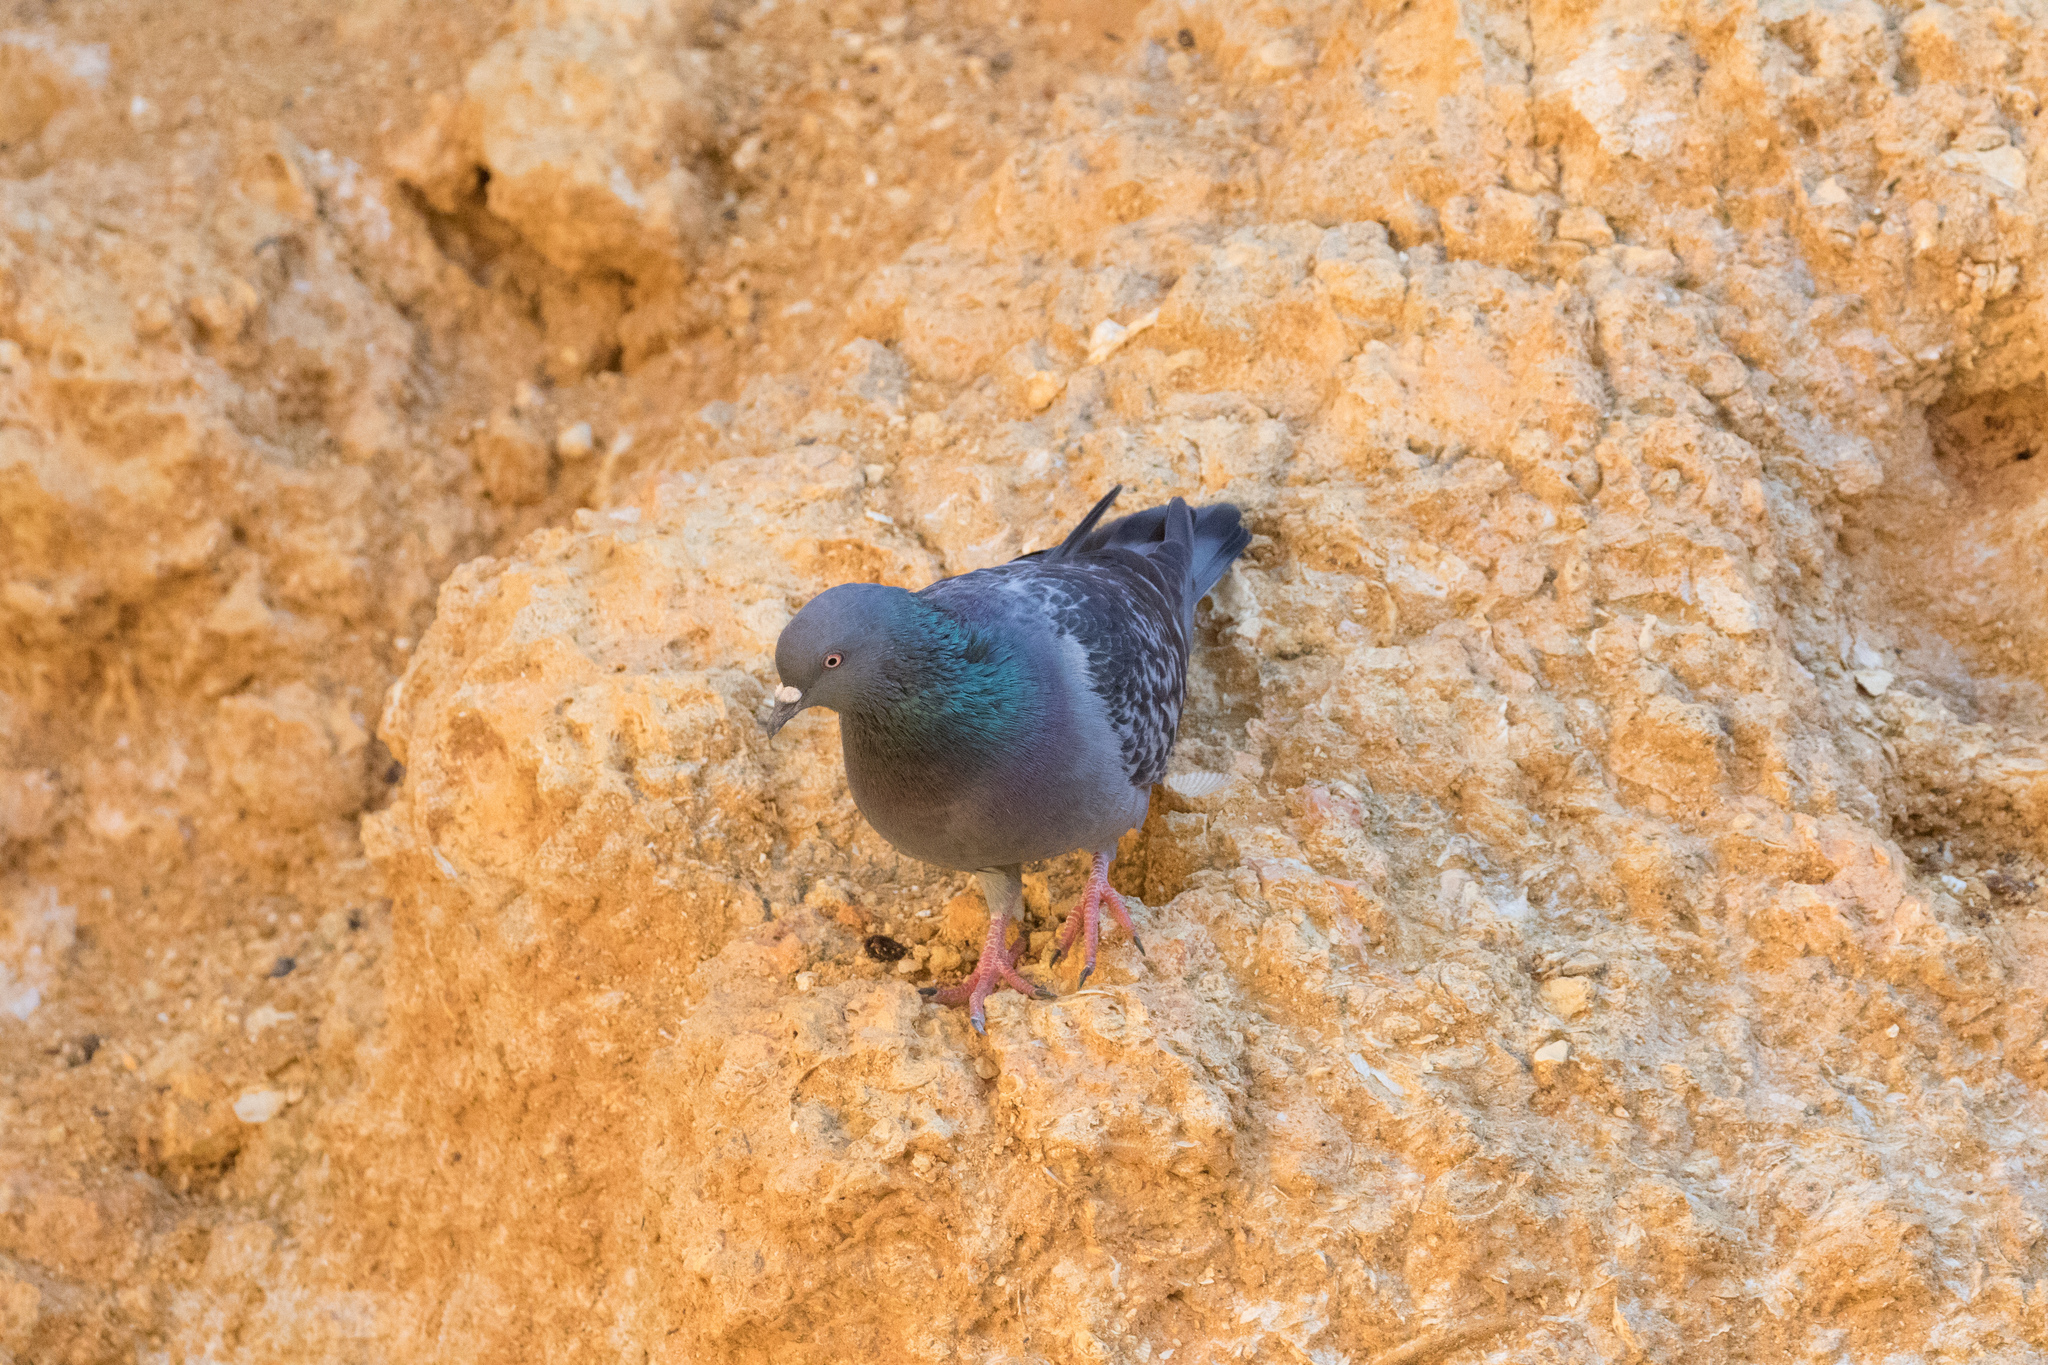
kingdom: Animalia
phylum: Chordata
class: Aves
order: Columbiformes
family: Columbidae
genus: Columba
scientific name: Columba livia
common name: Rock pigeon
